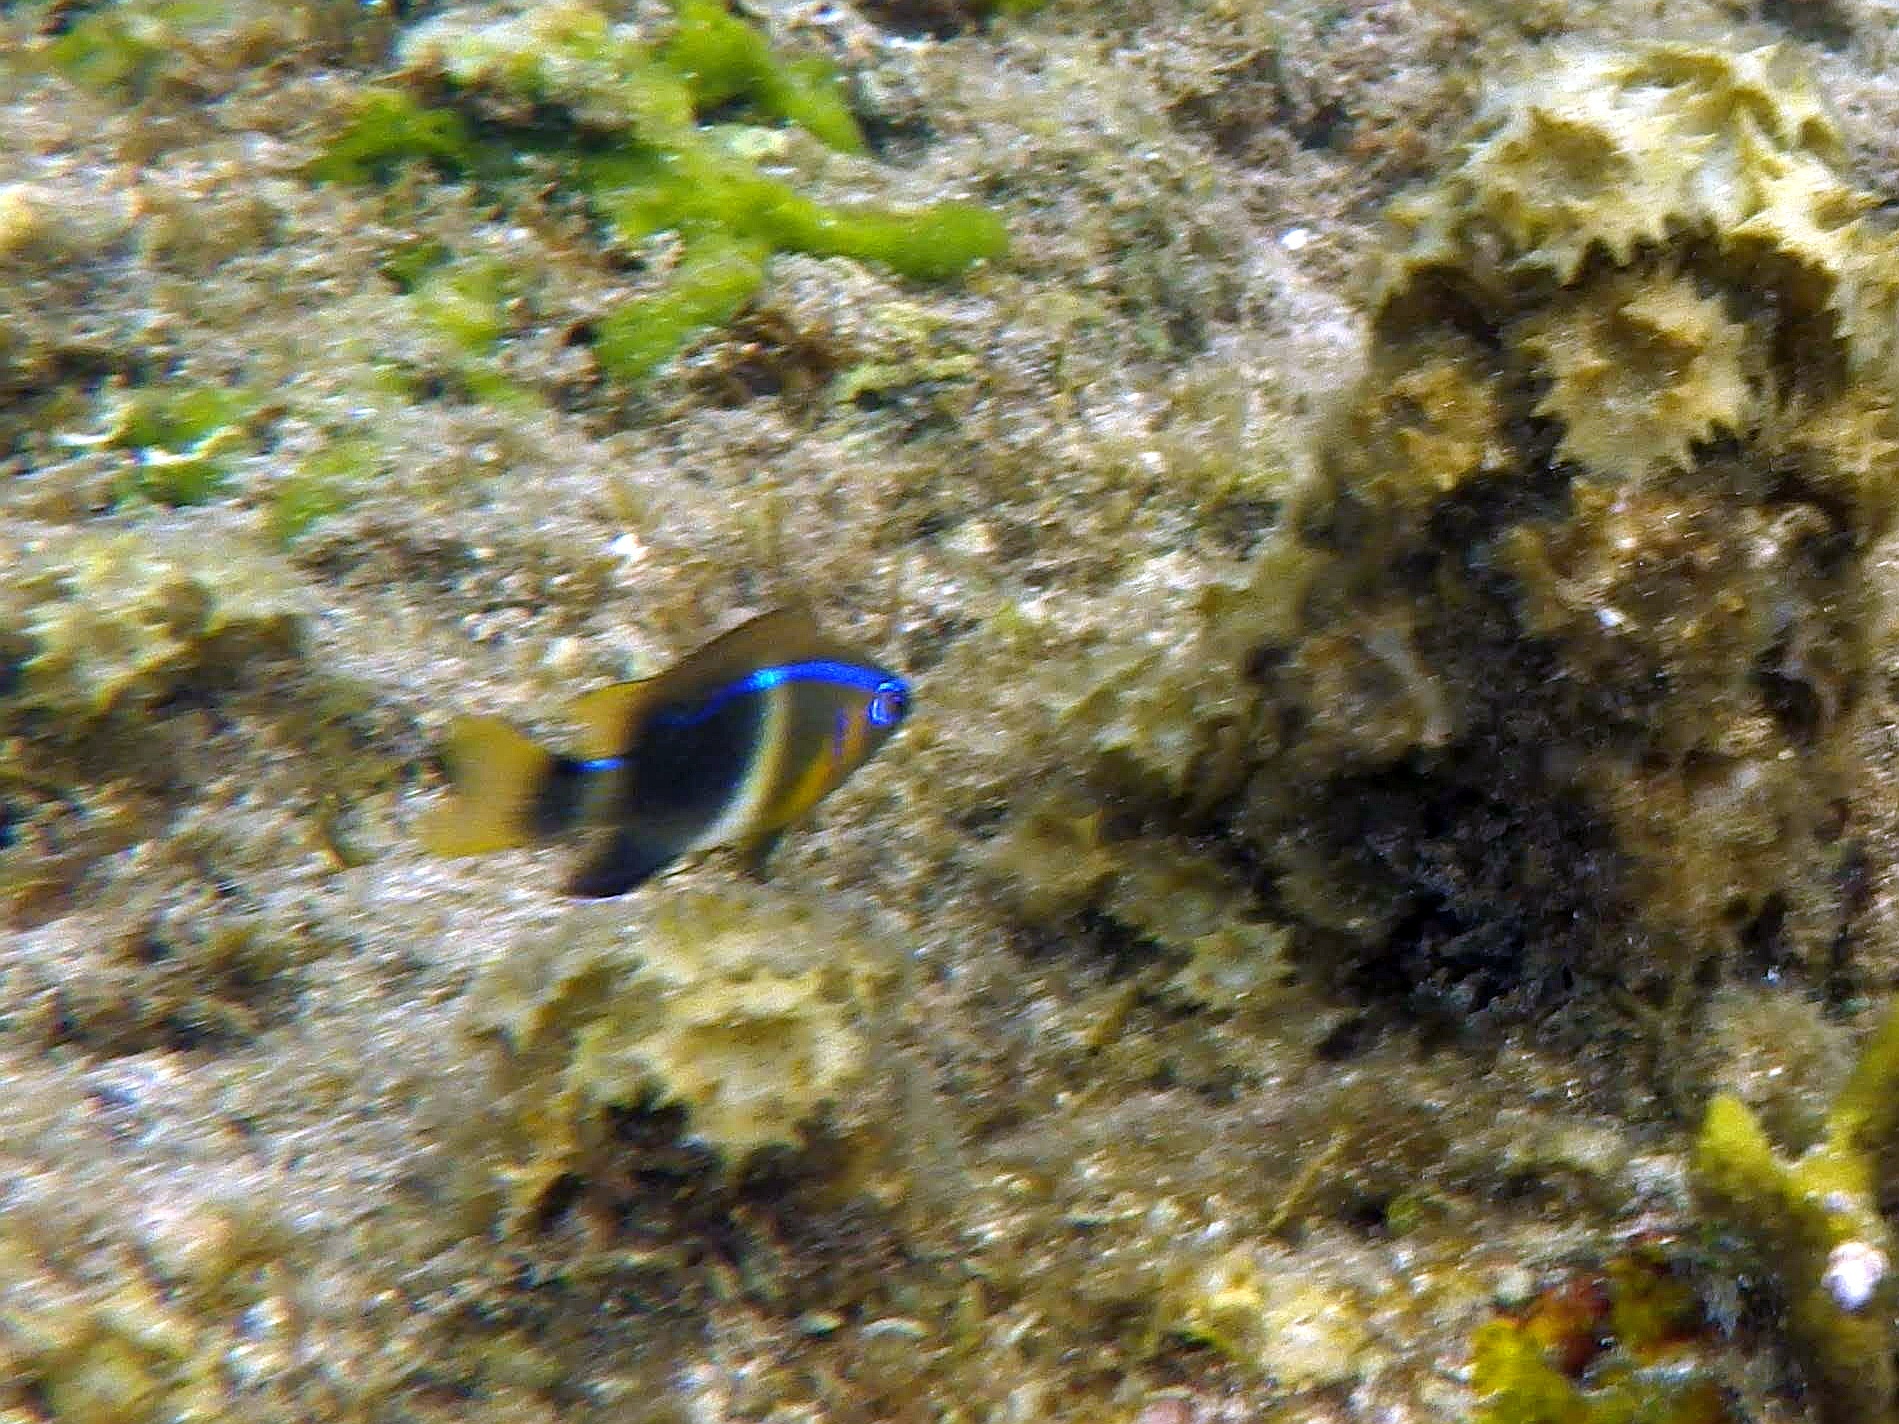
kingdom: Animalia
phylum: Chordata
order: Perciformes
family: Pomacentridae
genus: Chrysiptera
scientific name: Chrysiptera brownriggii
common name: Surge demoiselle
